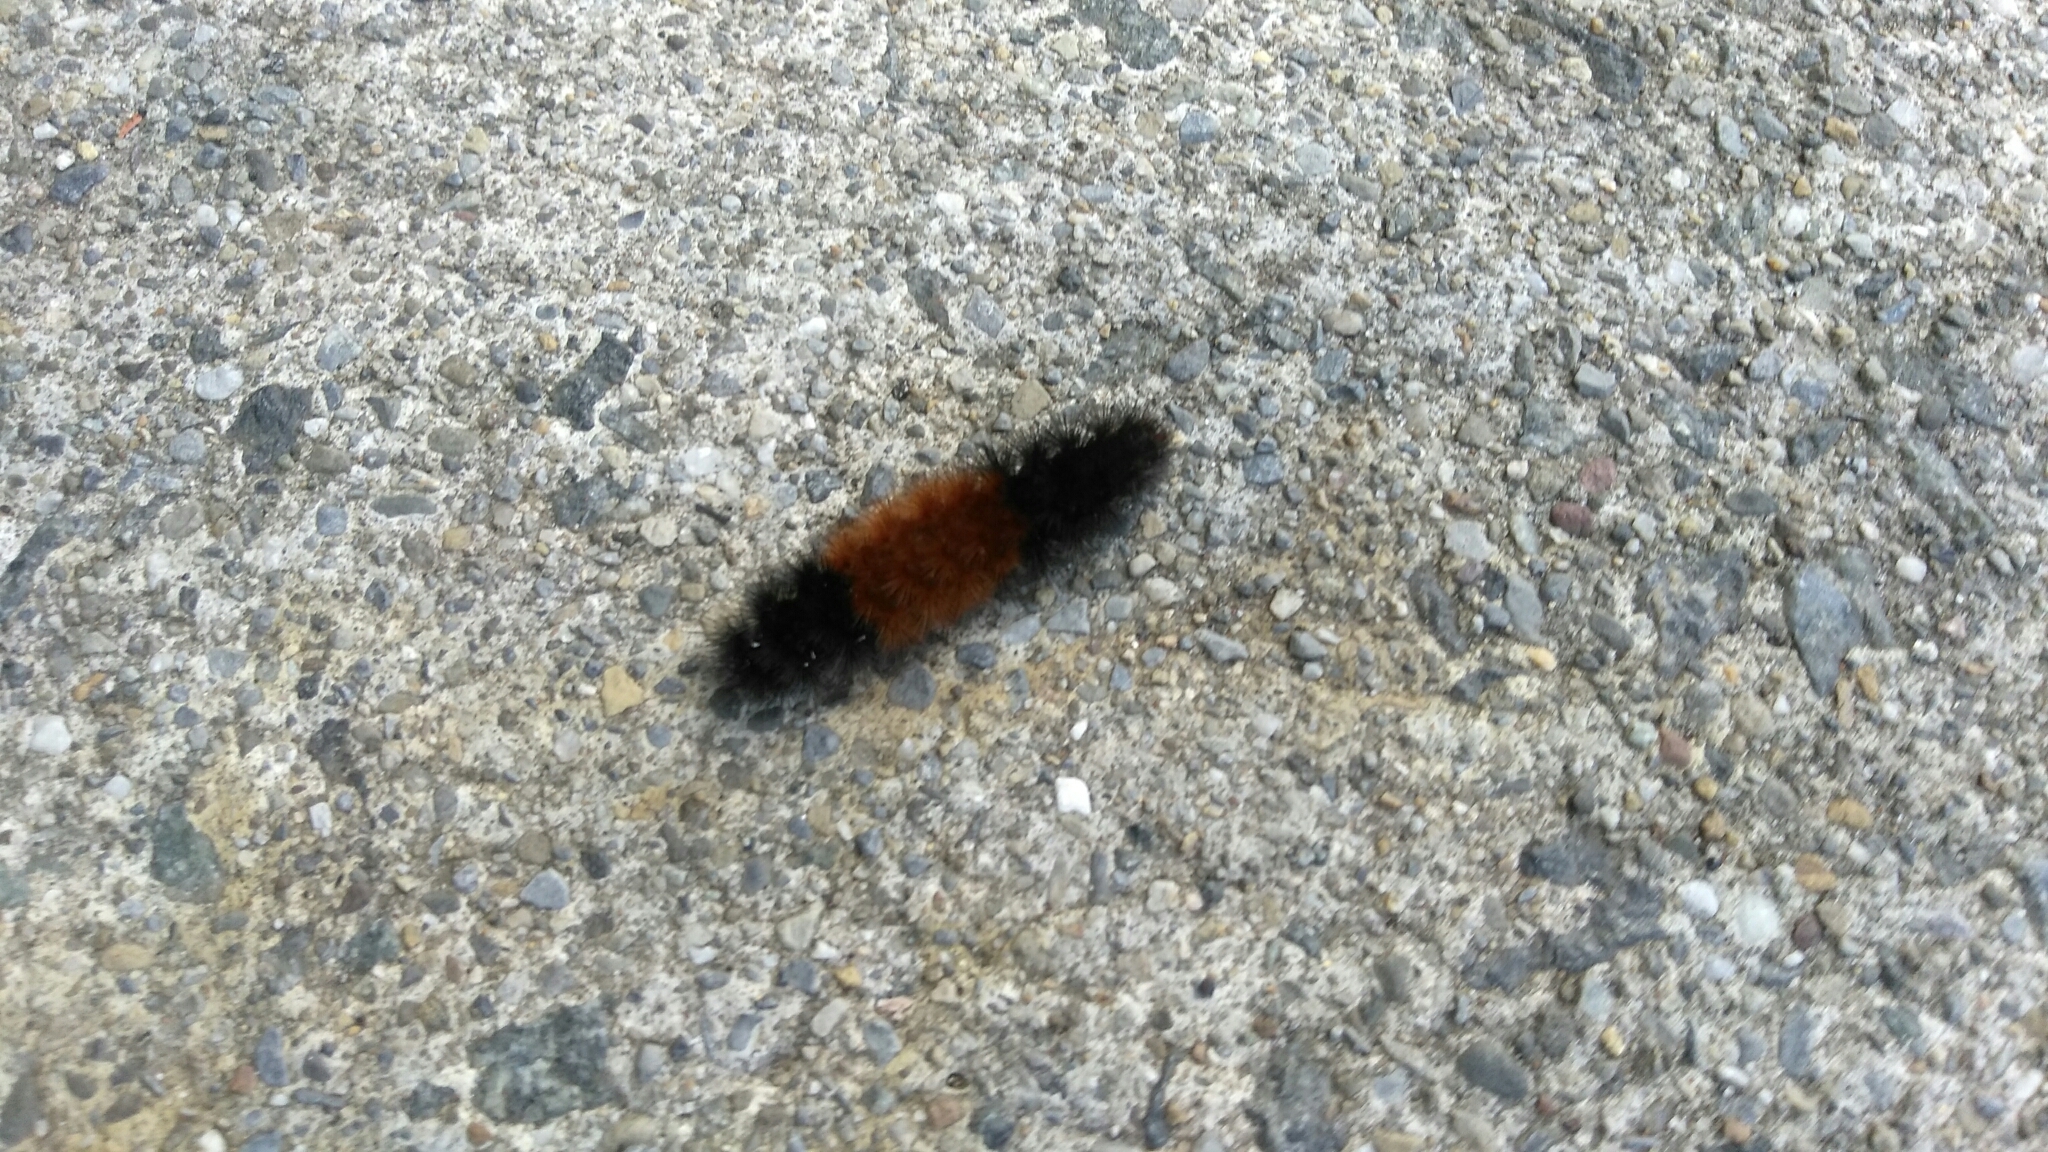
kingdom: Animalia
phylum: Arthropoda
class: Insecta
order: Lepidoptera
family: Erebidae
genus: Pyrrharctia
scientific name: Pyrrharctia isabella
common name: Isabella tiger moth
